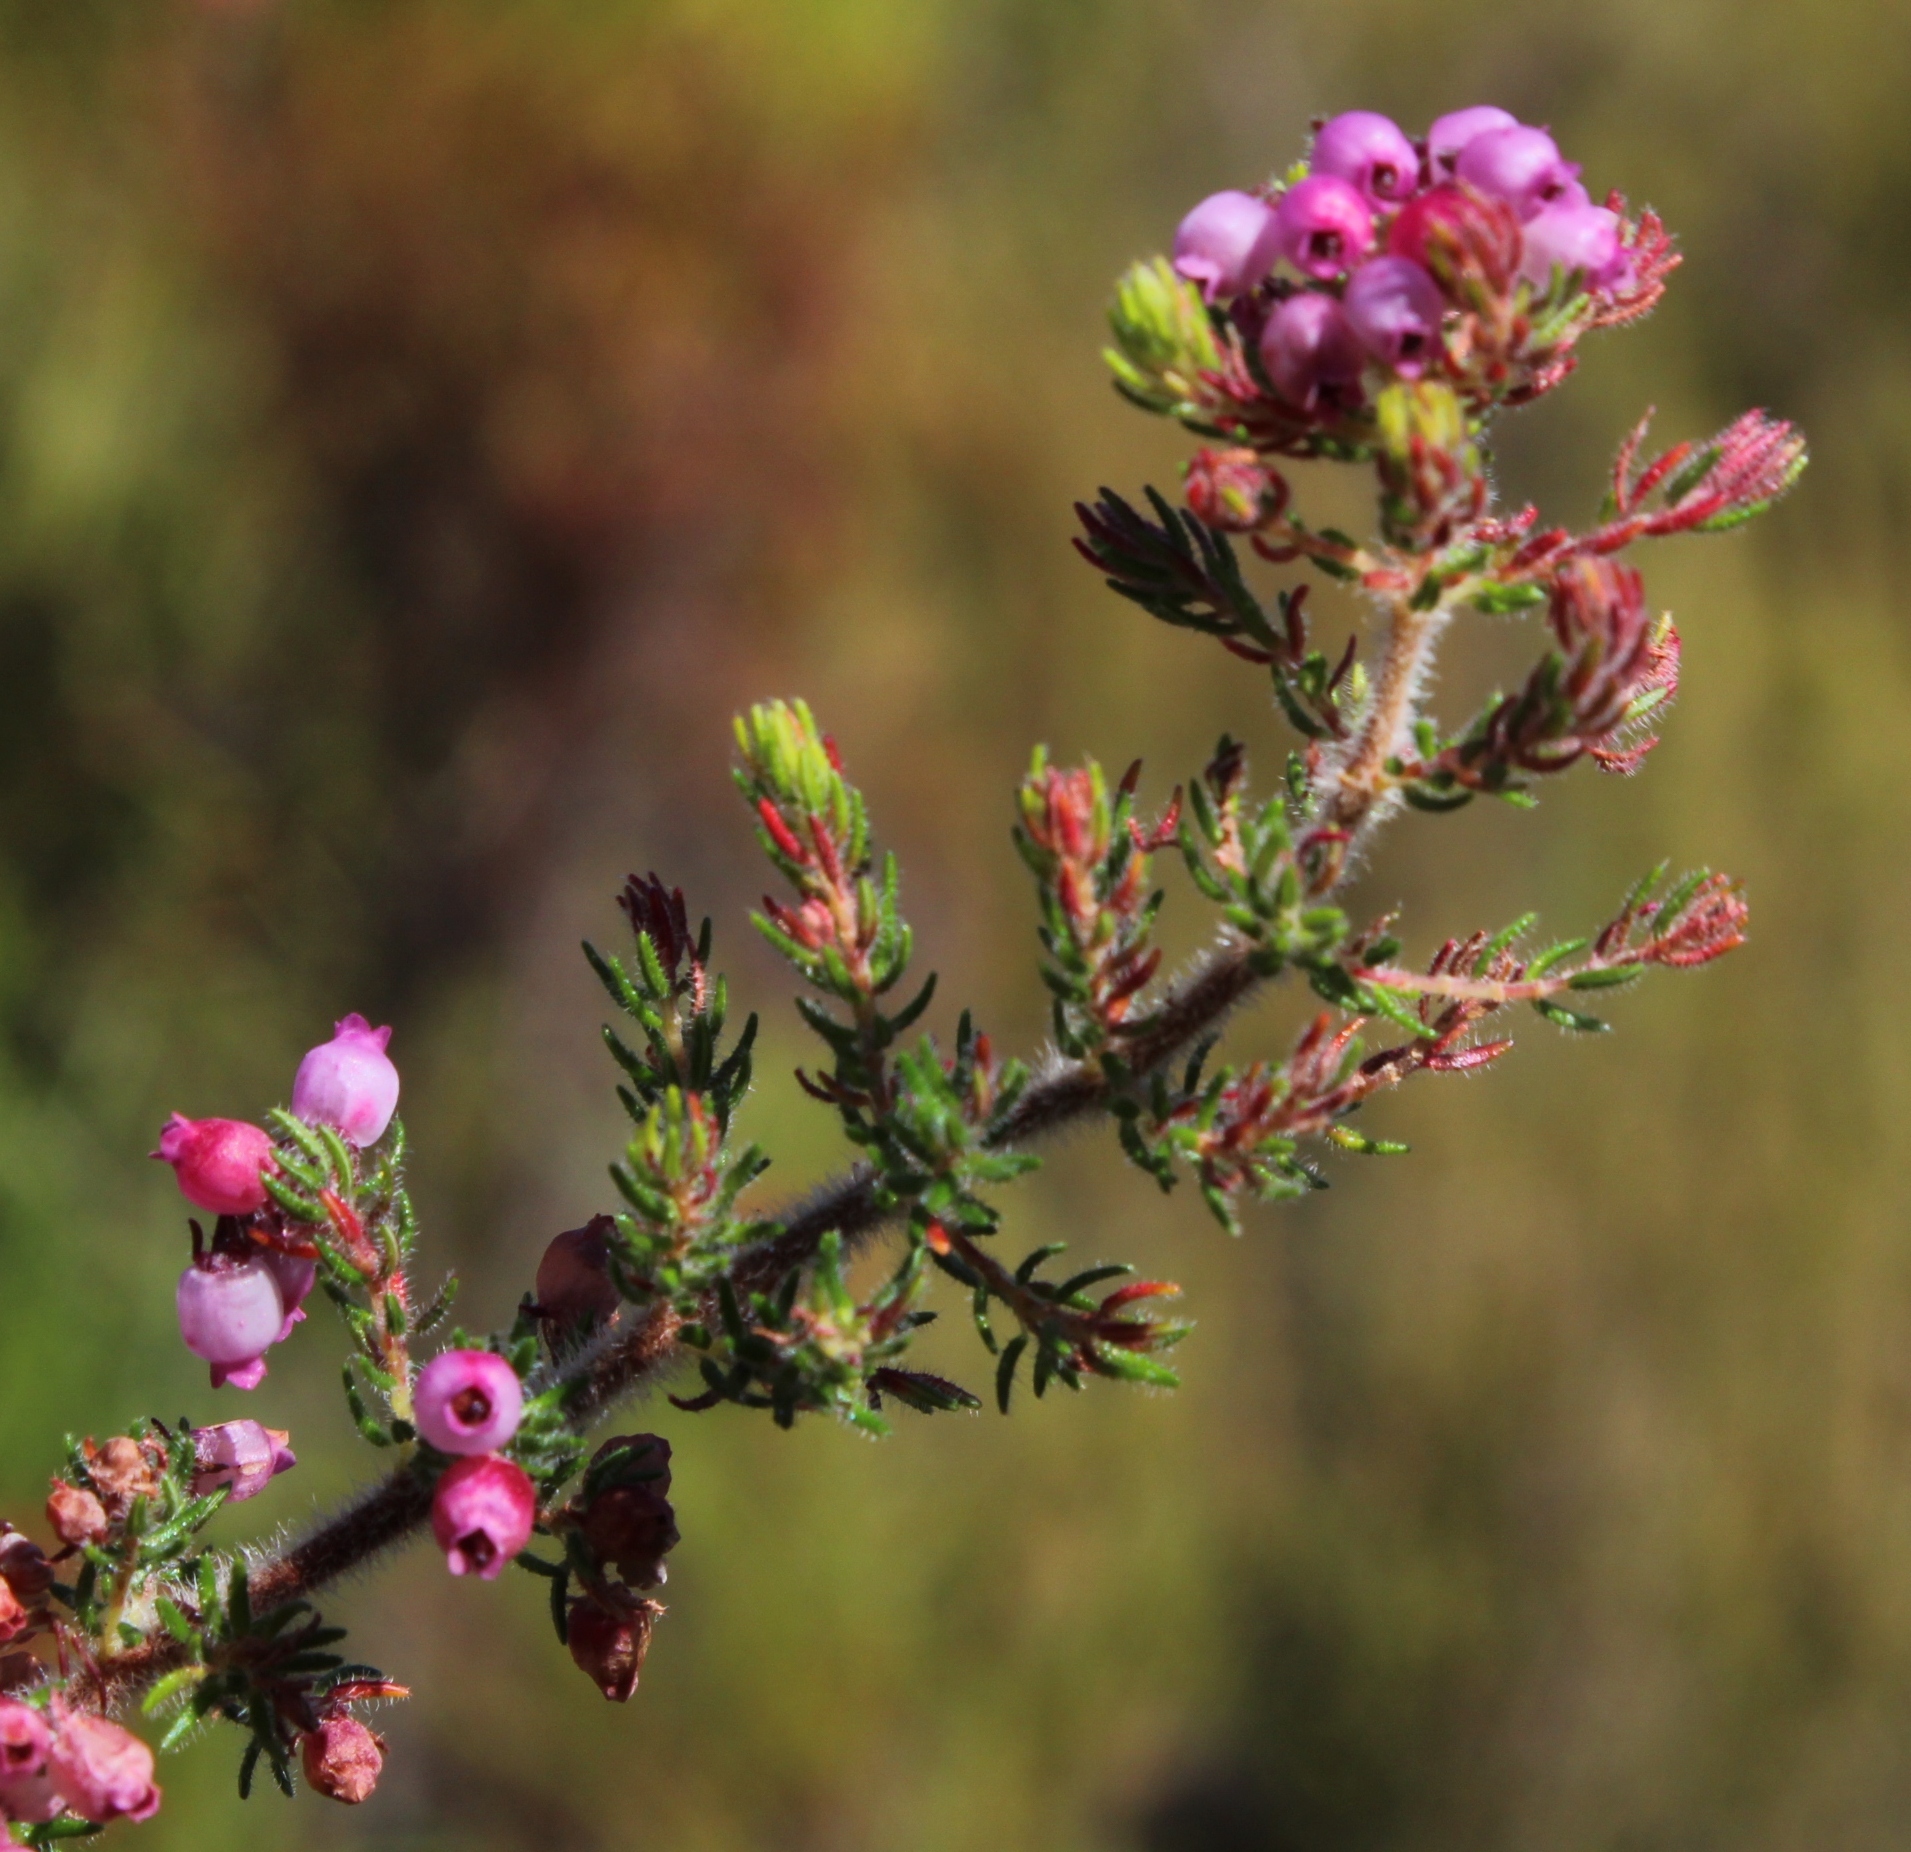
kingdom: Plantae
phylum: Tracheophyta
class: Magnoliopsida
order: Ericales
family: Ericaceae
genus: Erica
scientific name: Erica bergiana
